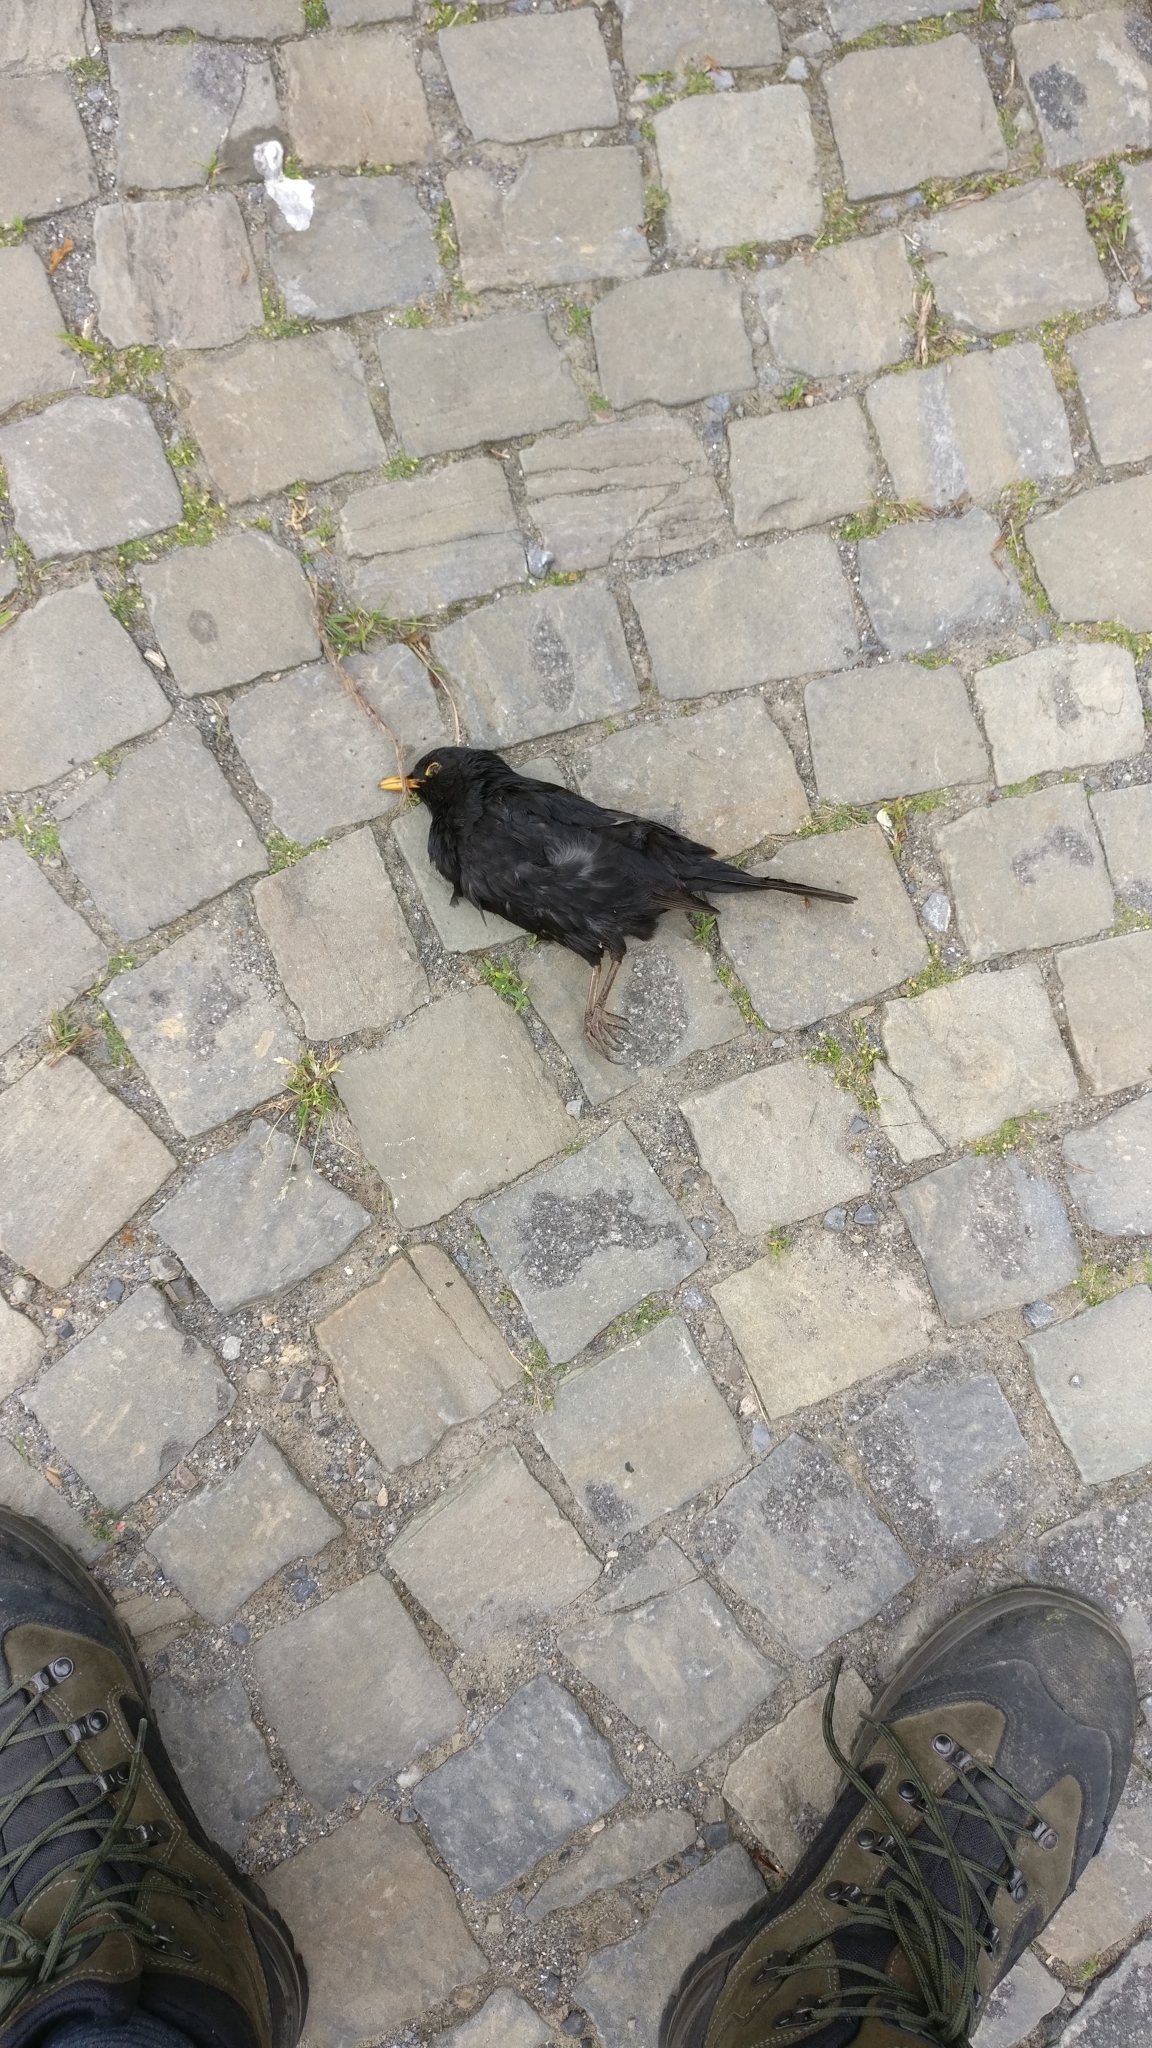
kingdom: Animalia
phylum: Chordata
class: Aves
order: Passeriformes
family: Turdidae
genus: Turdus
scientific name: Turdus merula
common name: Common blackbird
